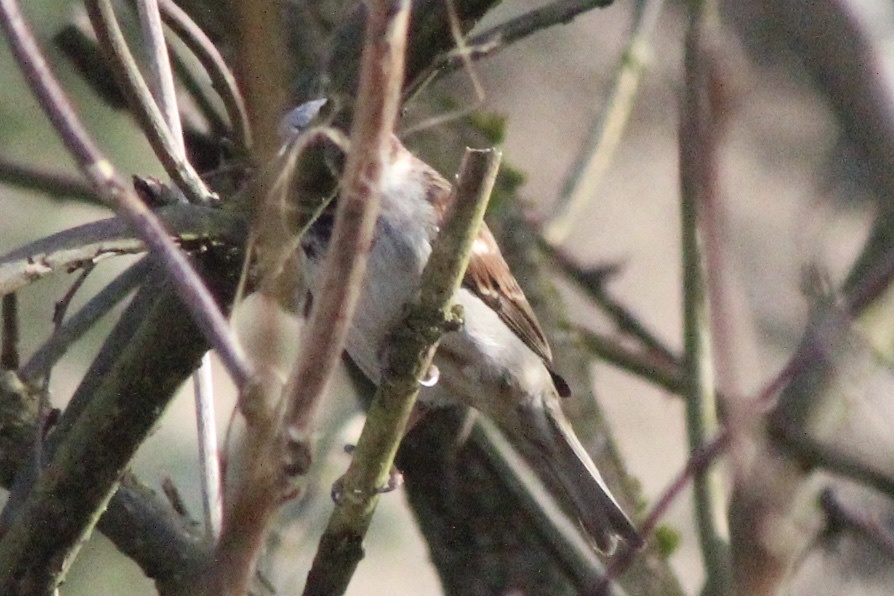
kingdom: Animalia
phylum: Chordata
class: Aves
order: Passeriformes
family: Passeridae
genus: Passer
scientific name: Passer domesticus
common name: House sparrow
